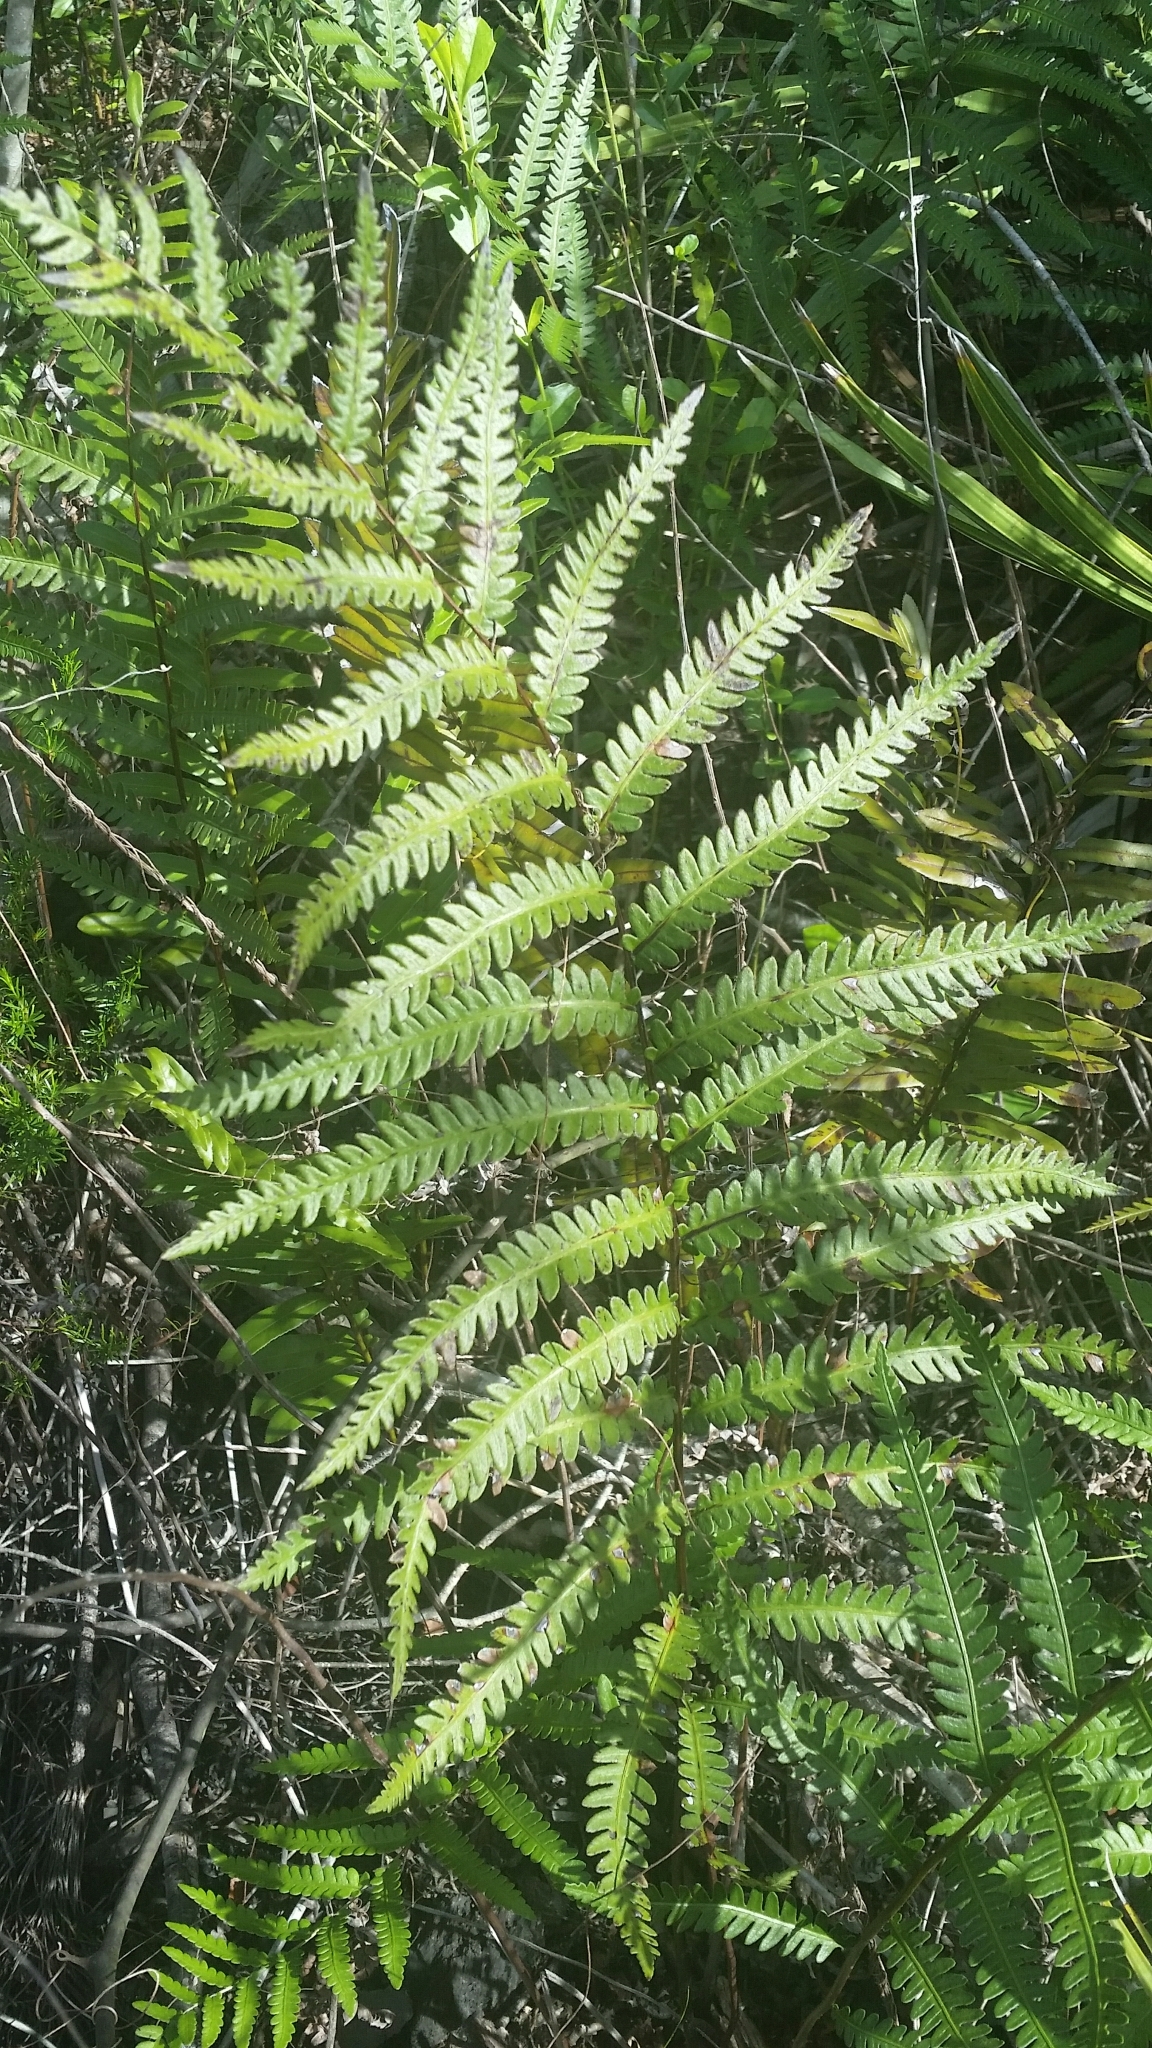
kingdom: Plantae
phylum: Tracheophyta
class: Polypodiopsida
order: Polypodiales
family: Blechnaceae
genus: Anchistea
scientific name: Anchistea virginica
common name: Virginia chain fern
